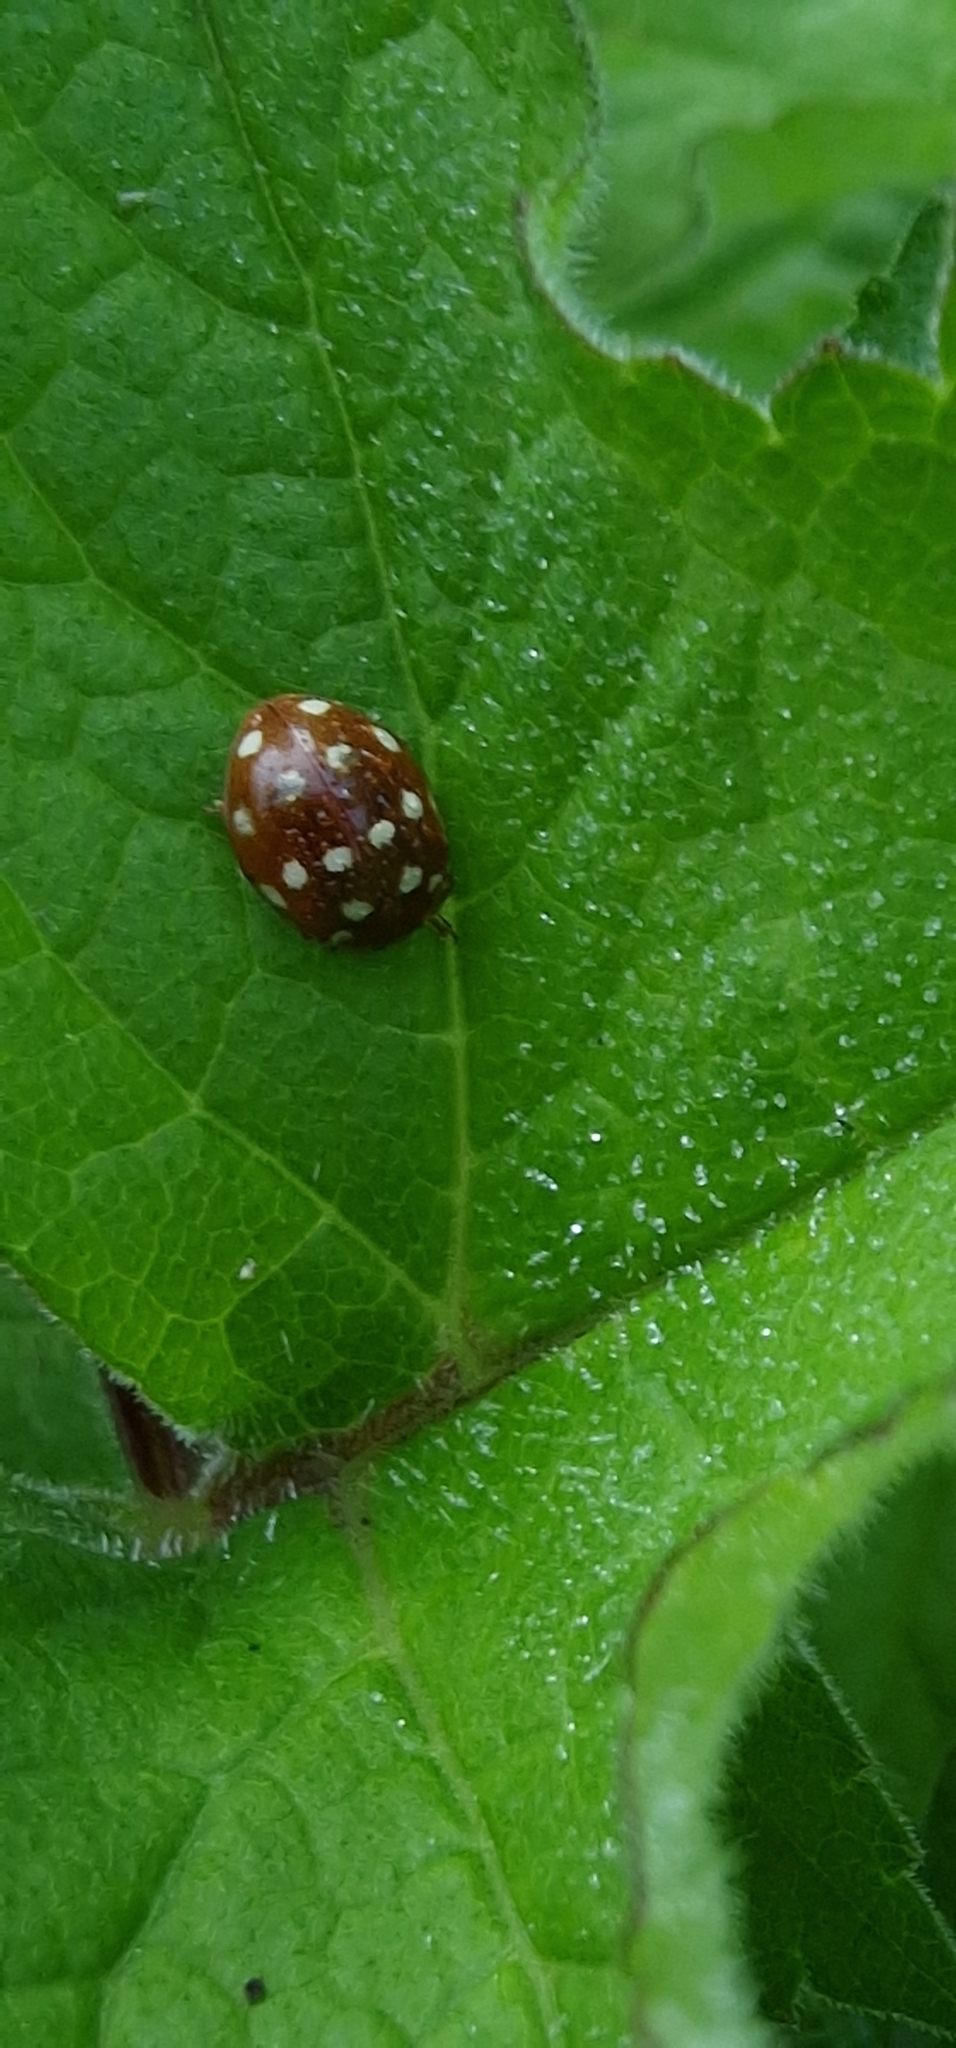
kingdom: Animalia
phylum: Arthropoda
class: Insecta
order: Coleoptera
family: Coccinellidae
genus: Calvia
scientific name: Calvia quatuordecimguttata
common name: Cream-spot ladybird
